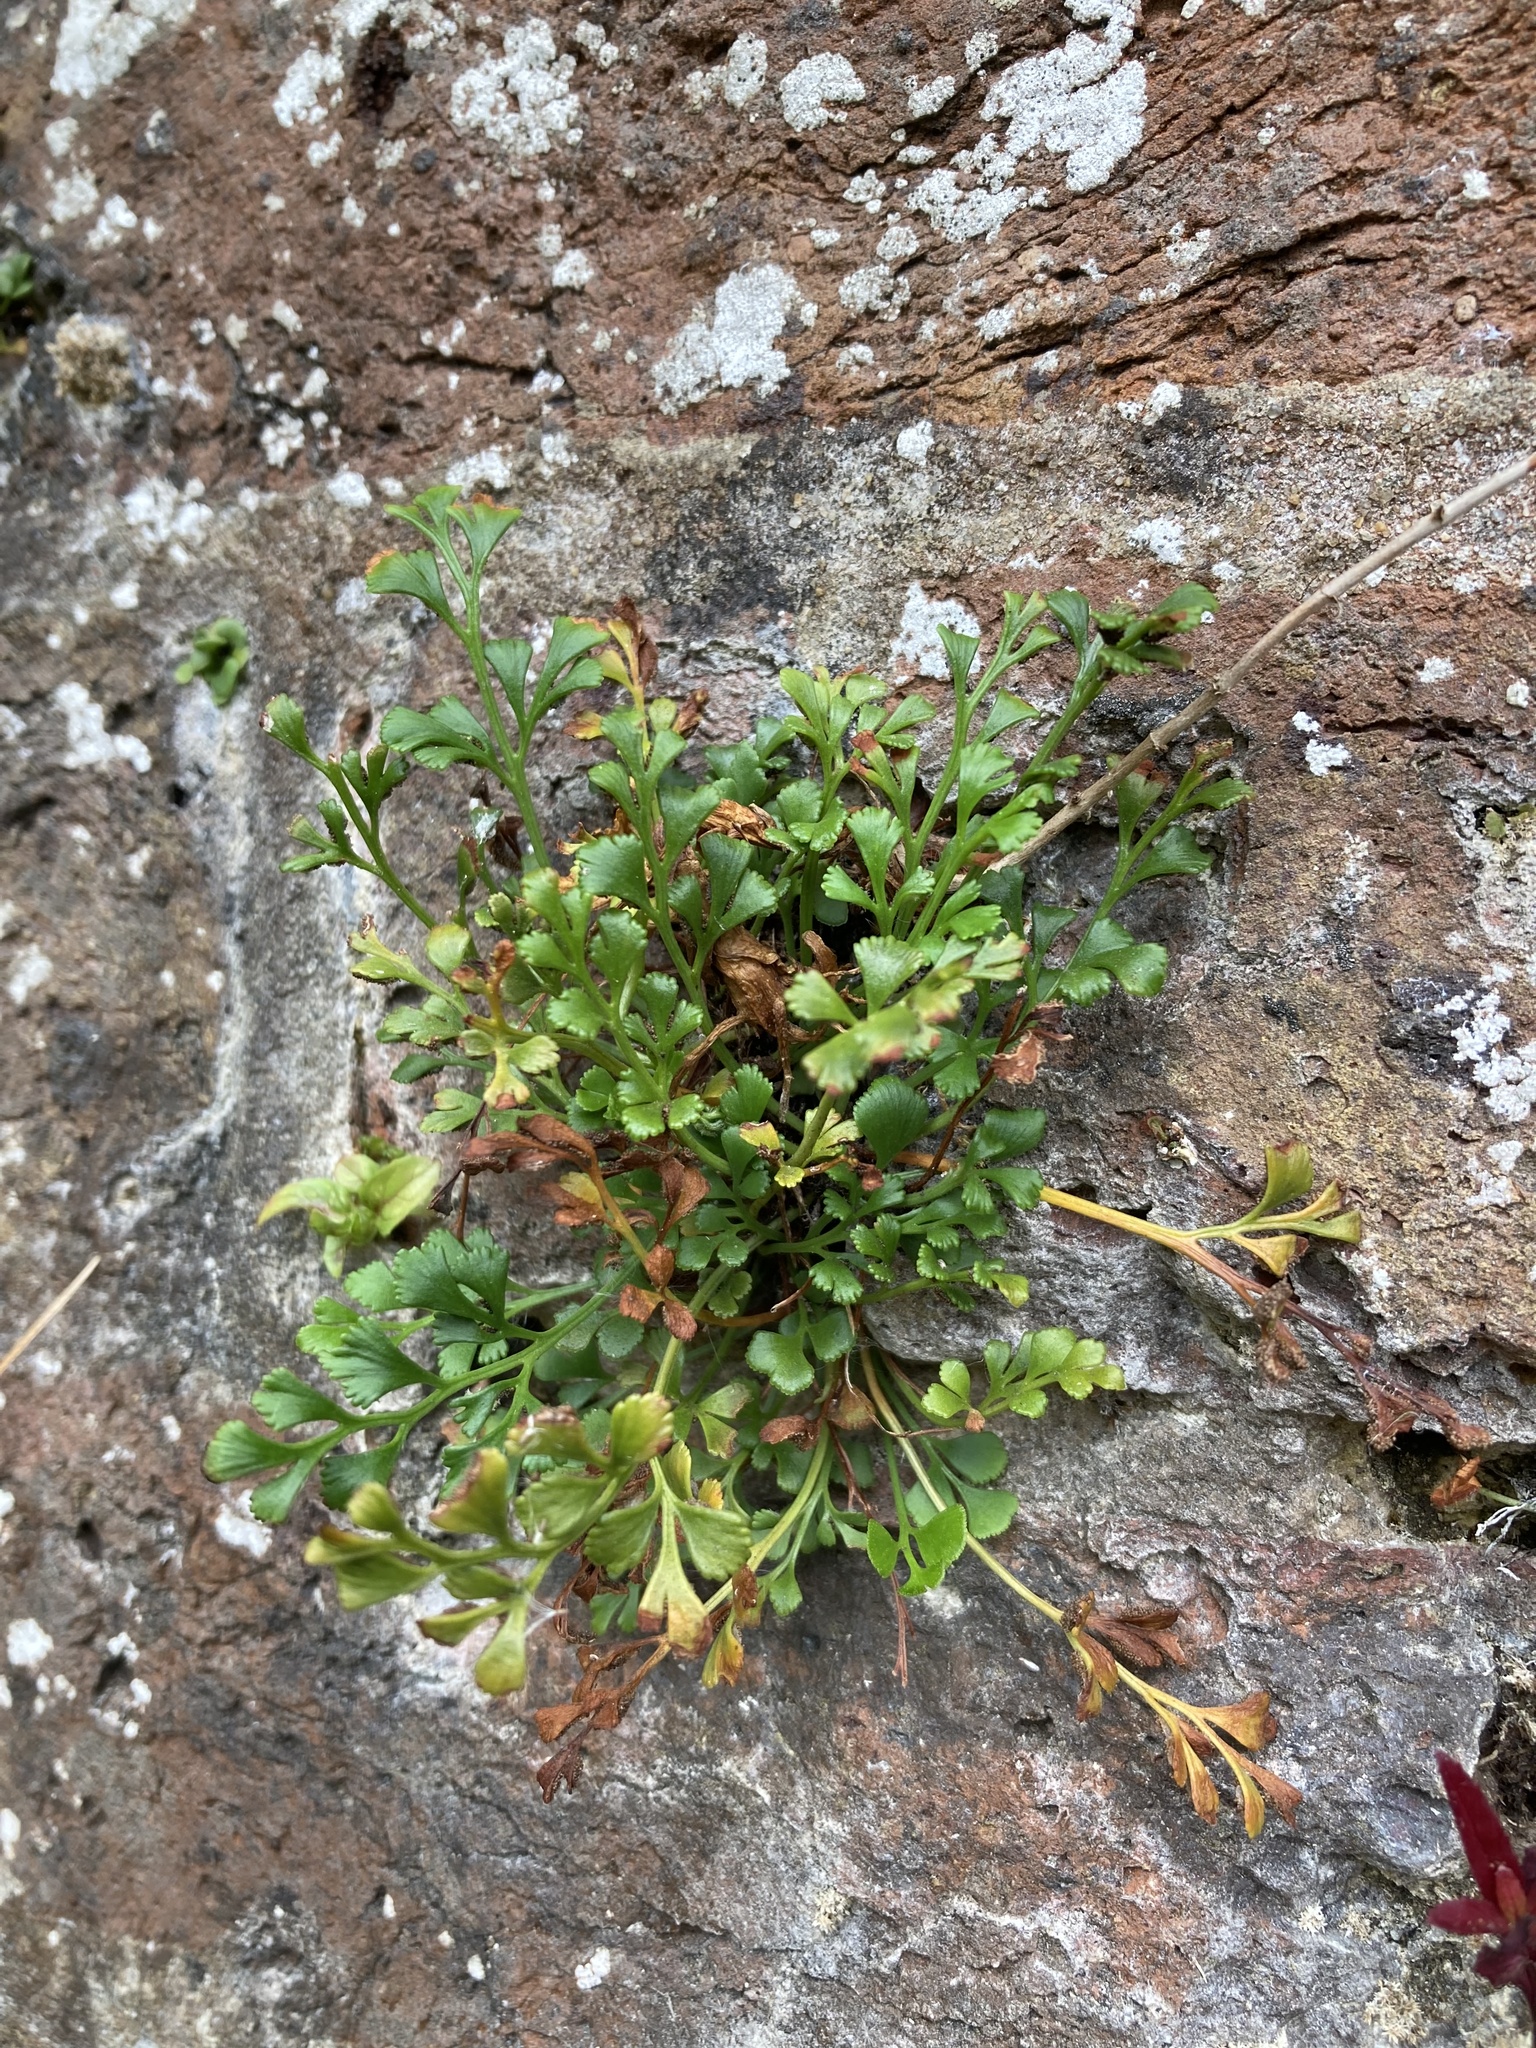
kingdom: Plantae
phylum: Tracheophyta
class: Polypodiopsida
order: Polypodiales
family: Aspleniaceae
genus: Asplenium
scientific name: Asplenium ruta-muraria
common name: Wall-rue
